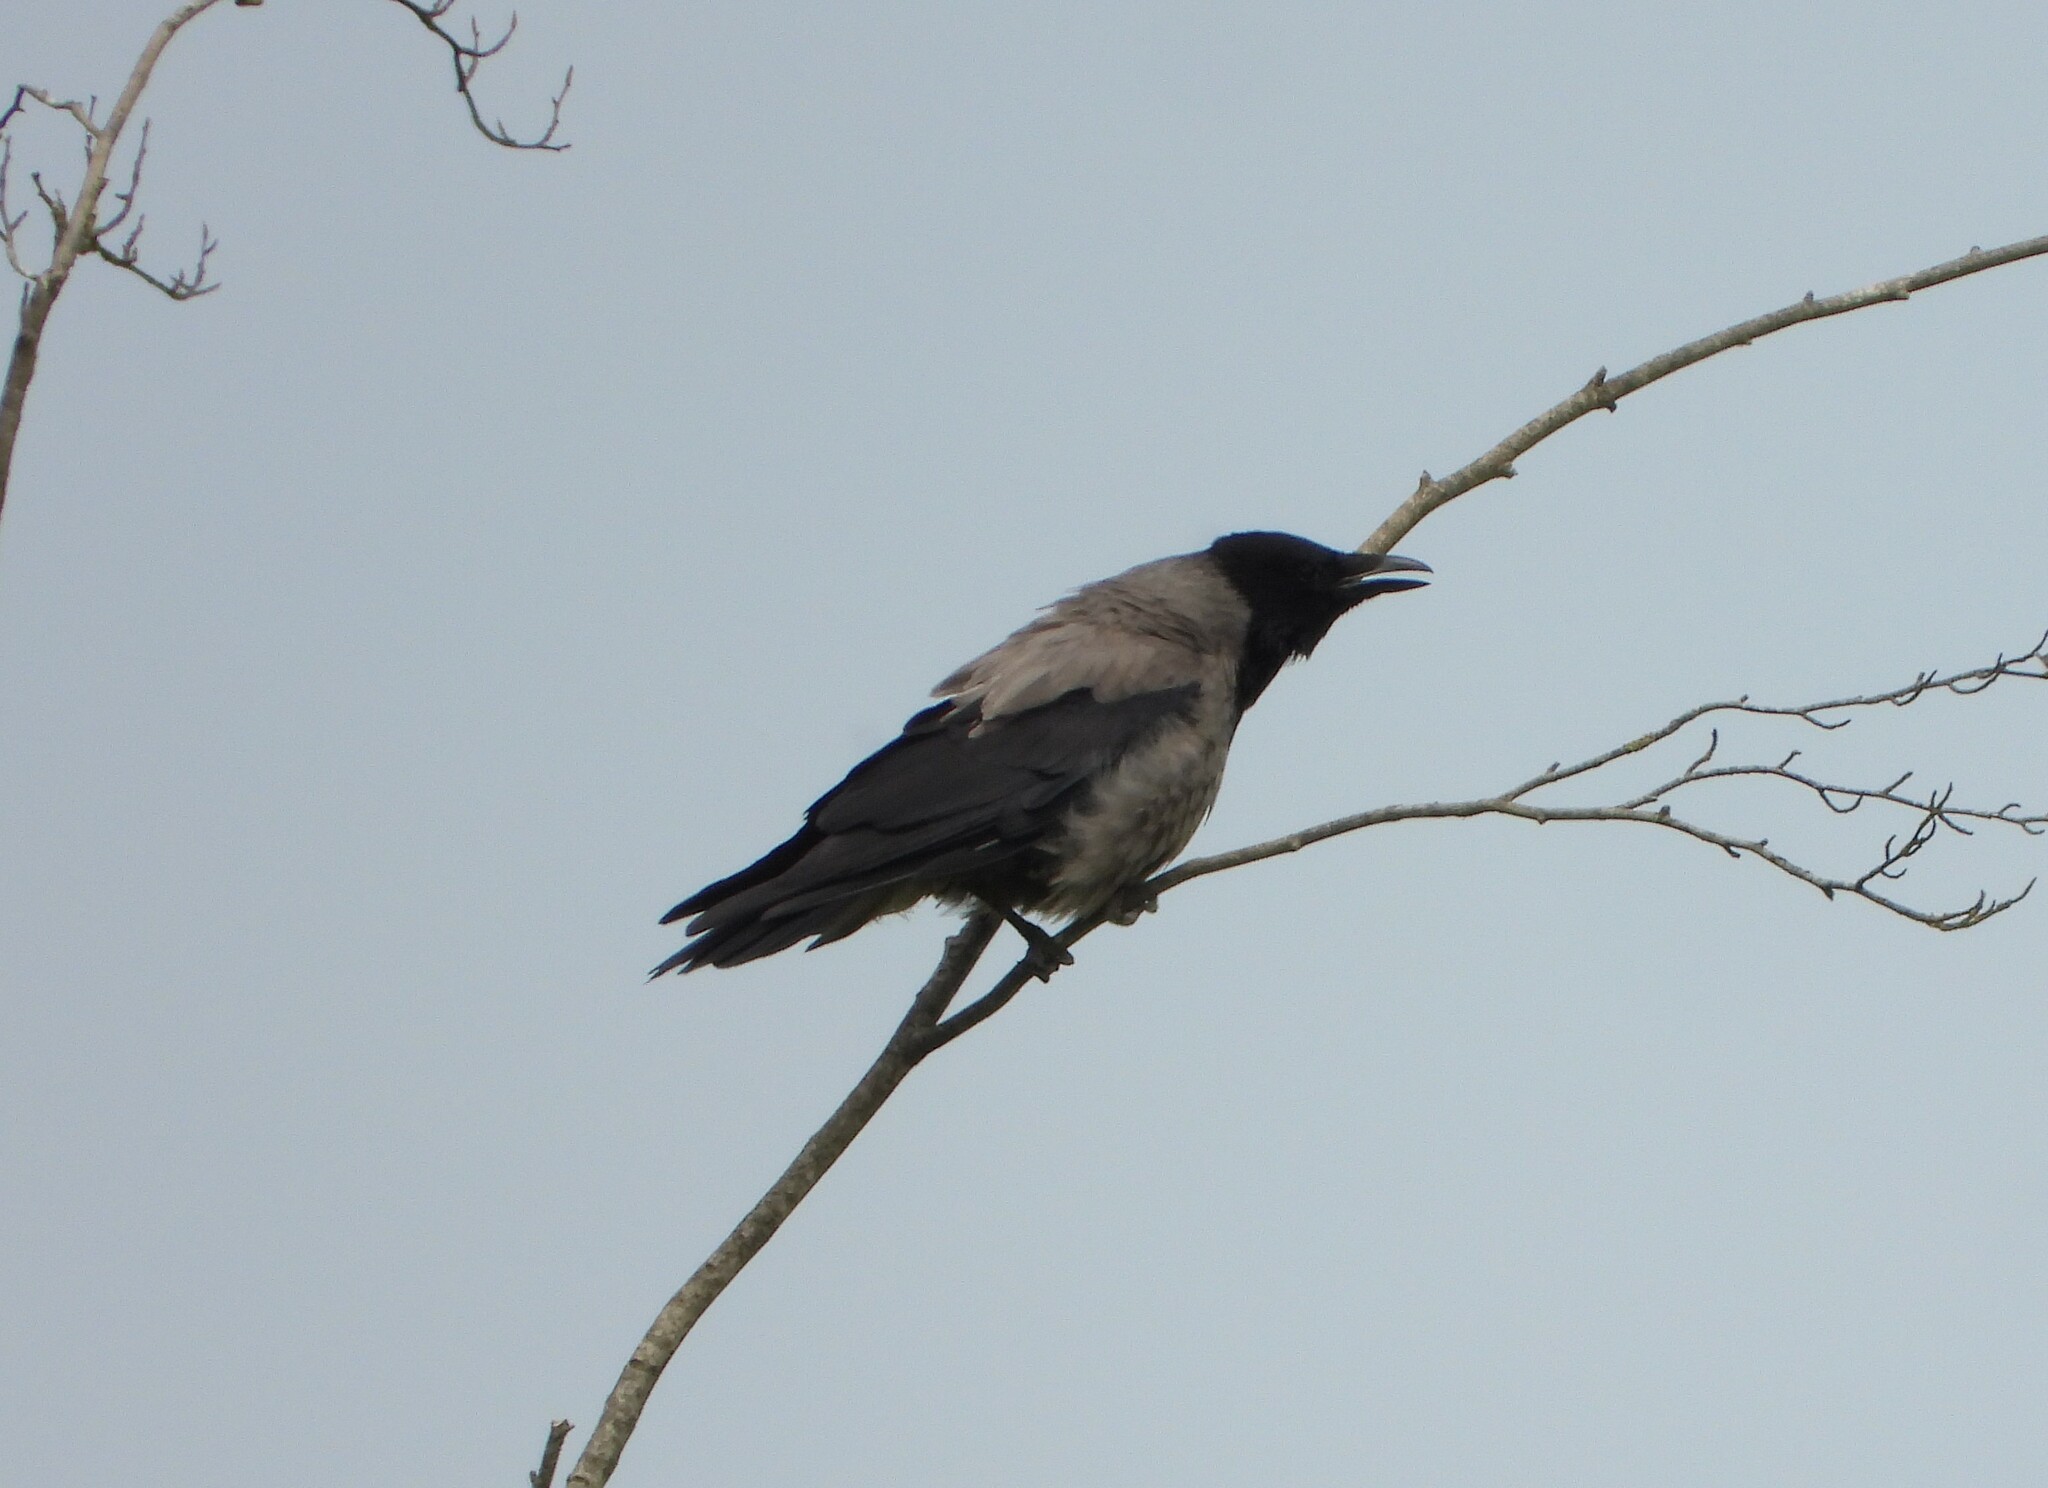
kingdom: Animalia
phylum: Chordata
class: Aves
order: Passeriformes
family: Corvidae
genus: Corvus
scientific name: Corvus cornix
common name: Hooded crow
